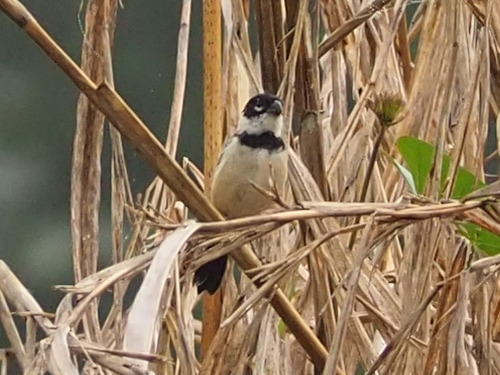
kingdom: Animalia
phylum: Chordata
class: Aves
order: Passeriformes
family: Thraupidae
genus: Sporophila
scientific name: Sporophila morelleti
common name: Morelet's seedeater
